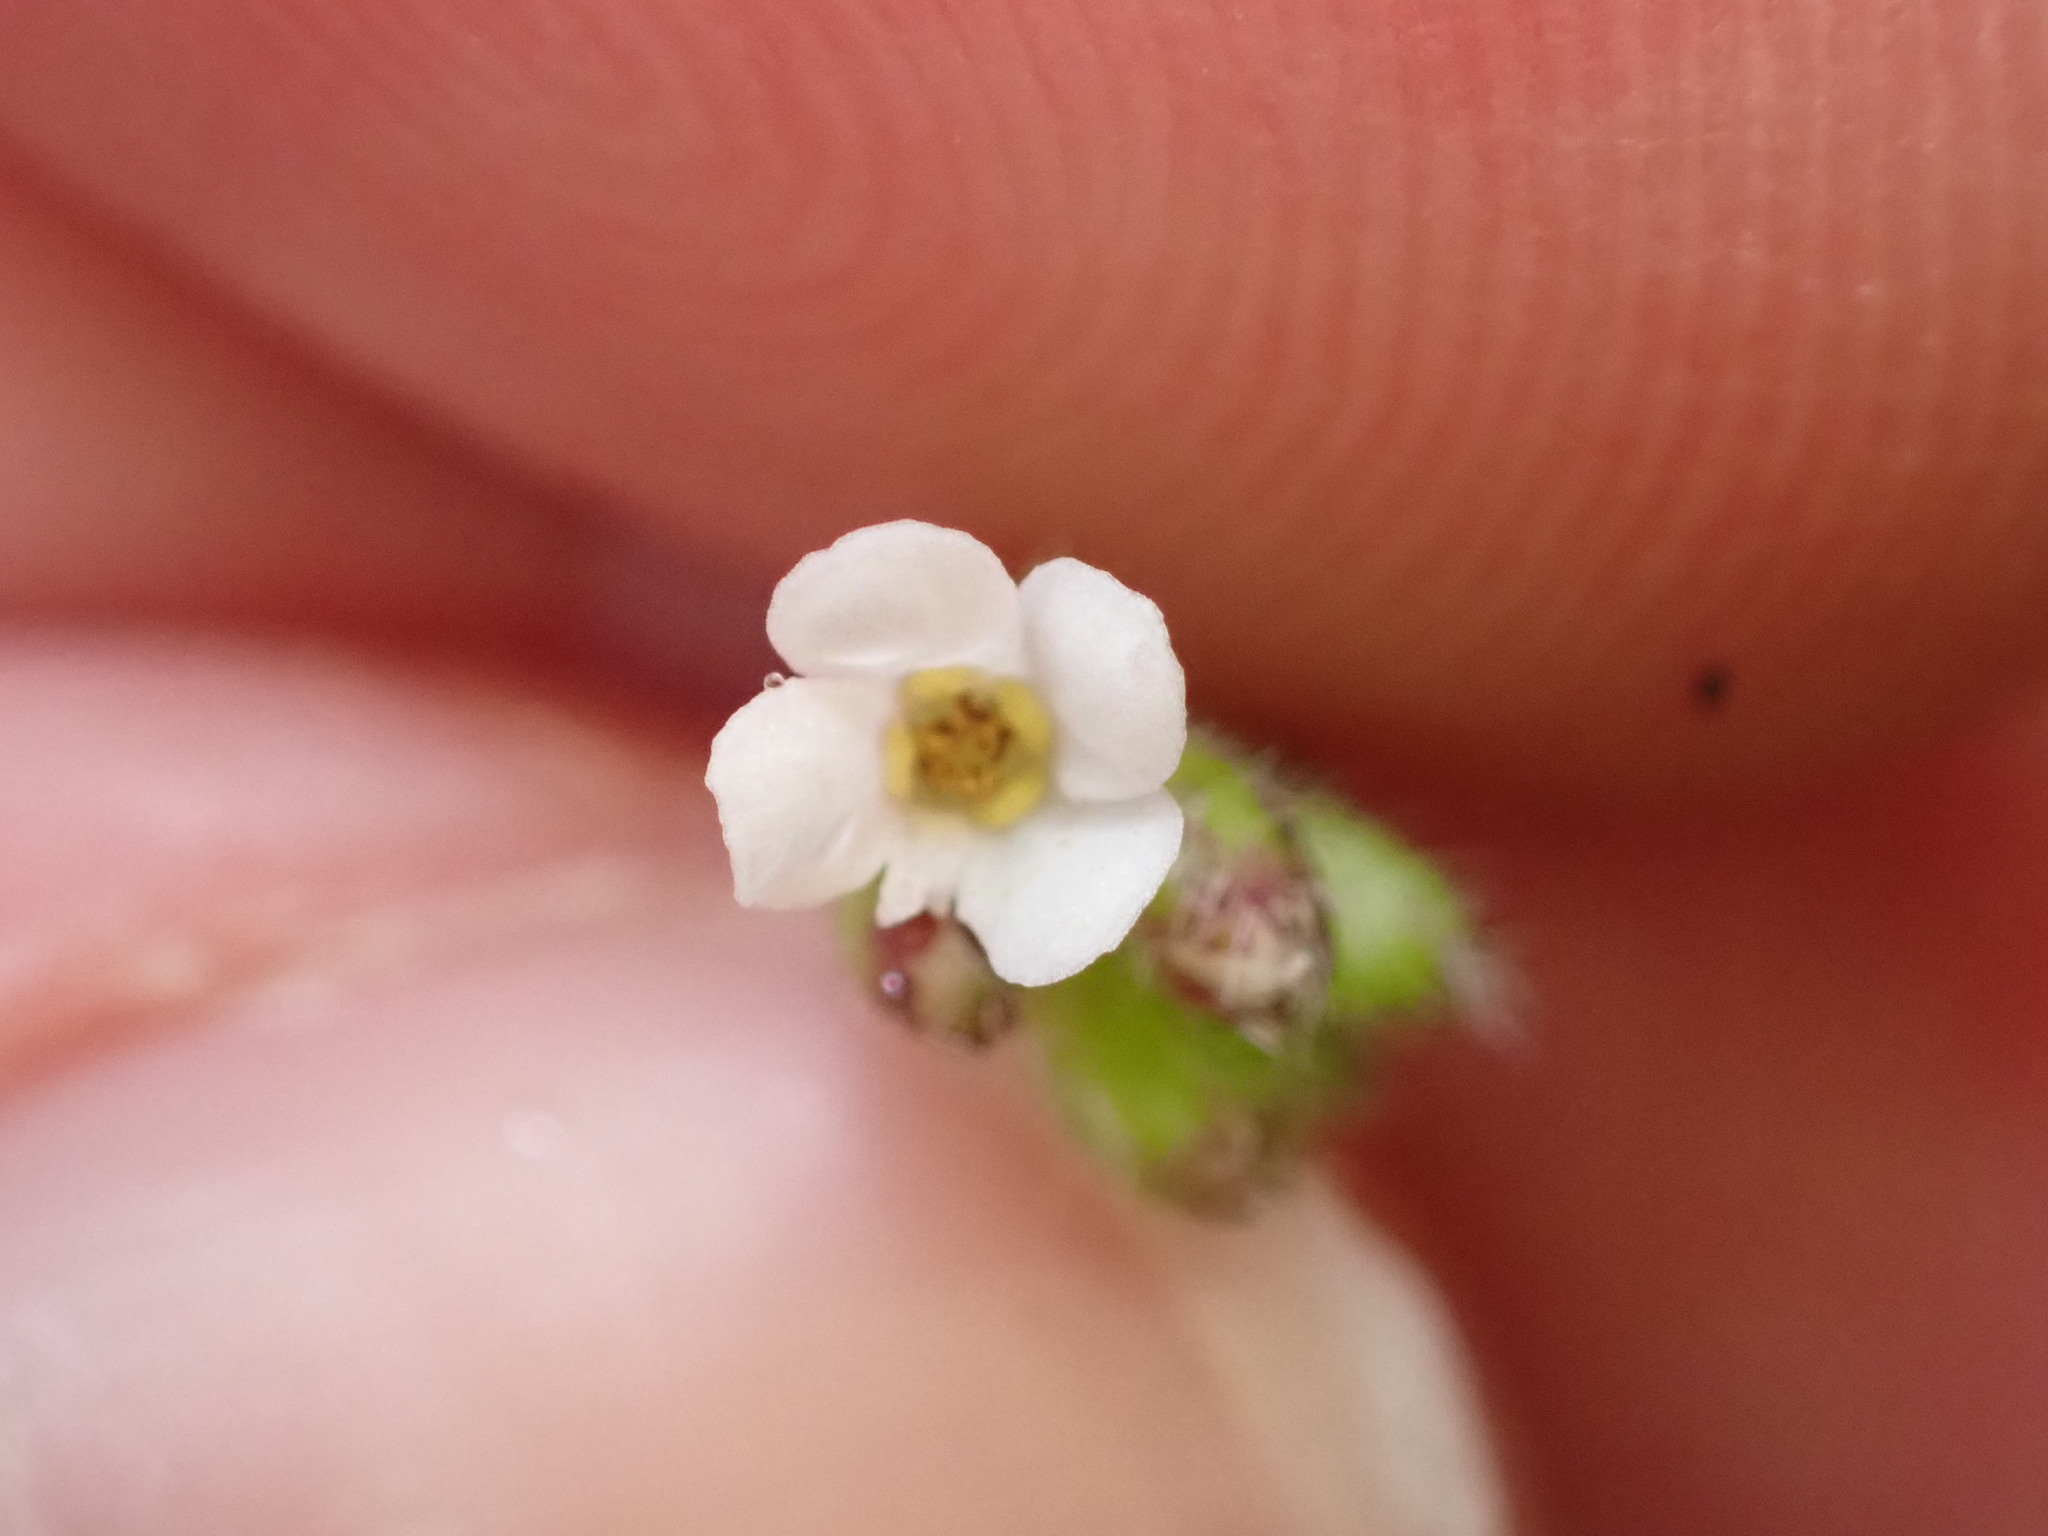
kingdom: Plantae
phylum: Tracheophyta
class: Magnoliopsida
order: Boraginales
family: Boraginaceae
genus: Myosotis
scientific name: Myosotis forsteri
